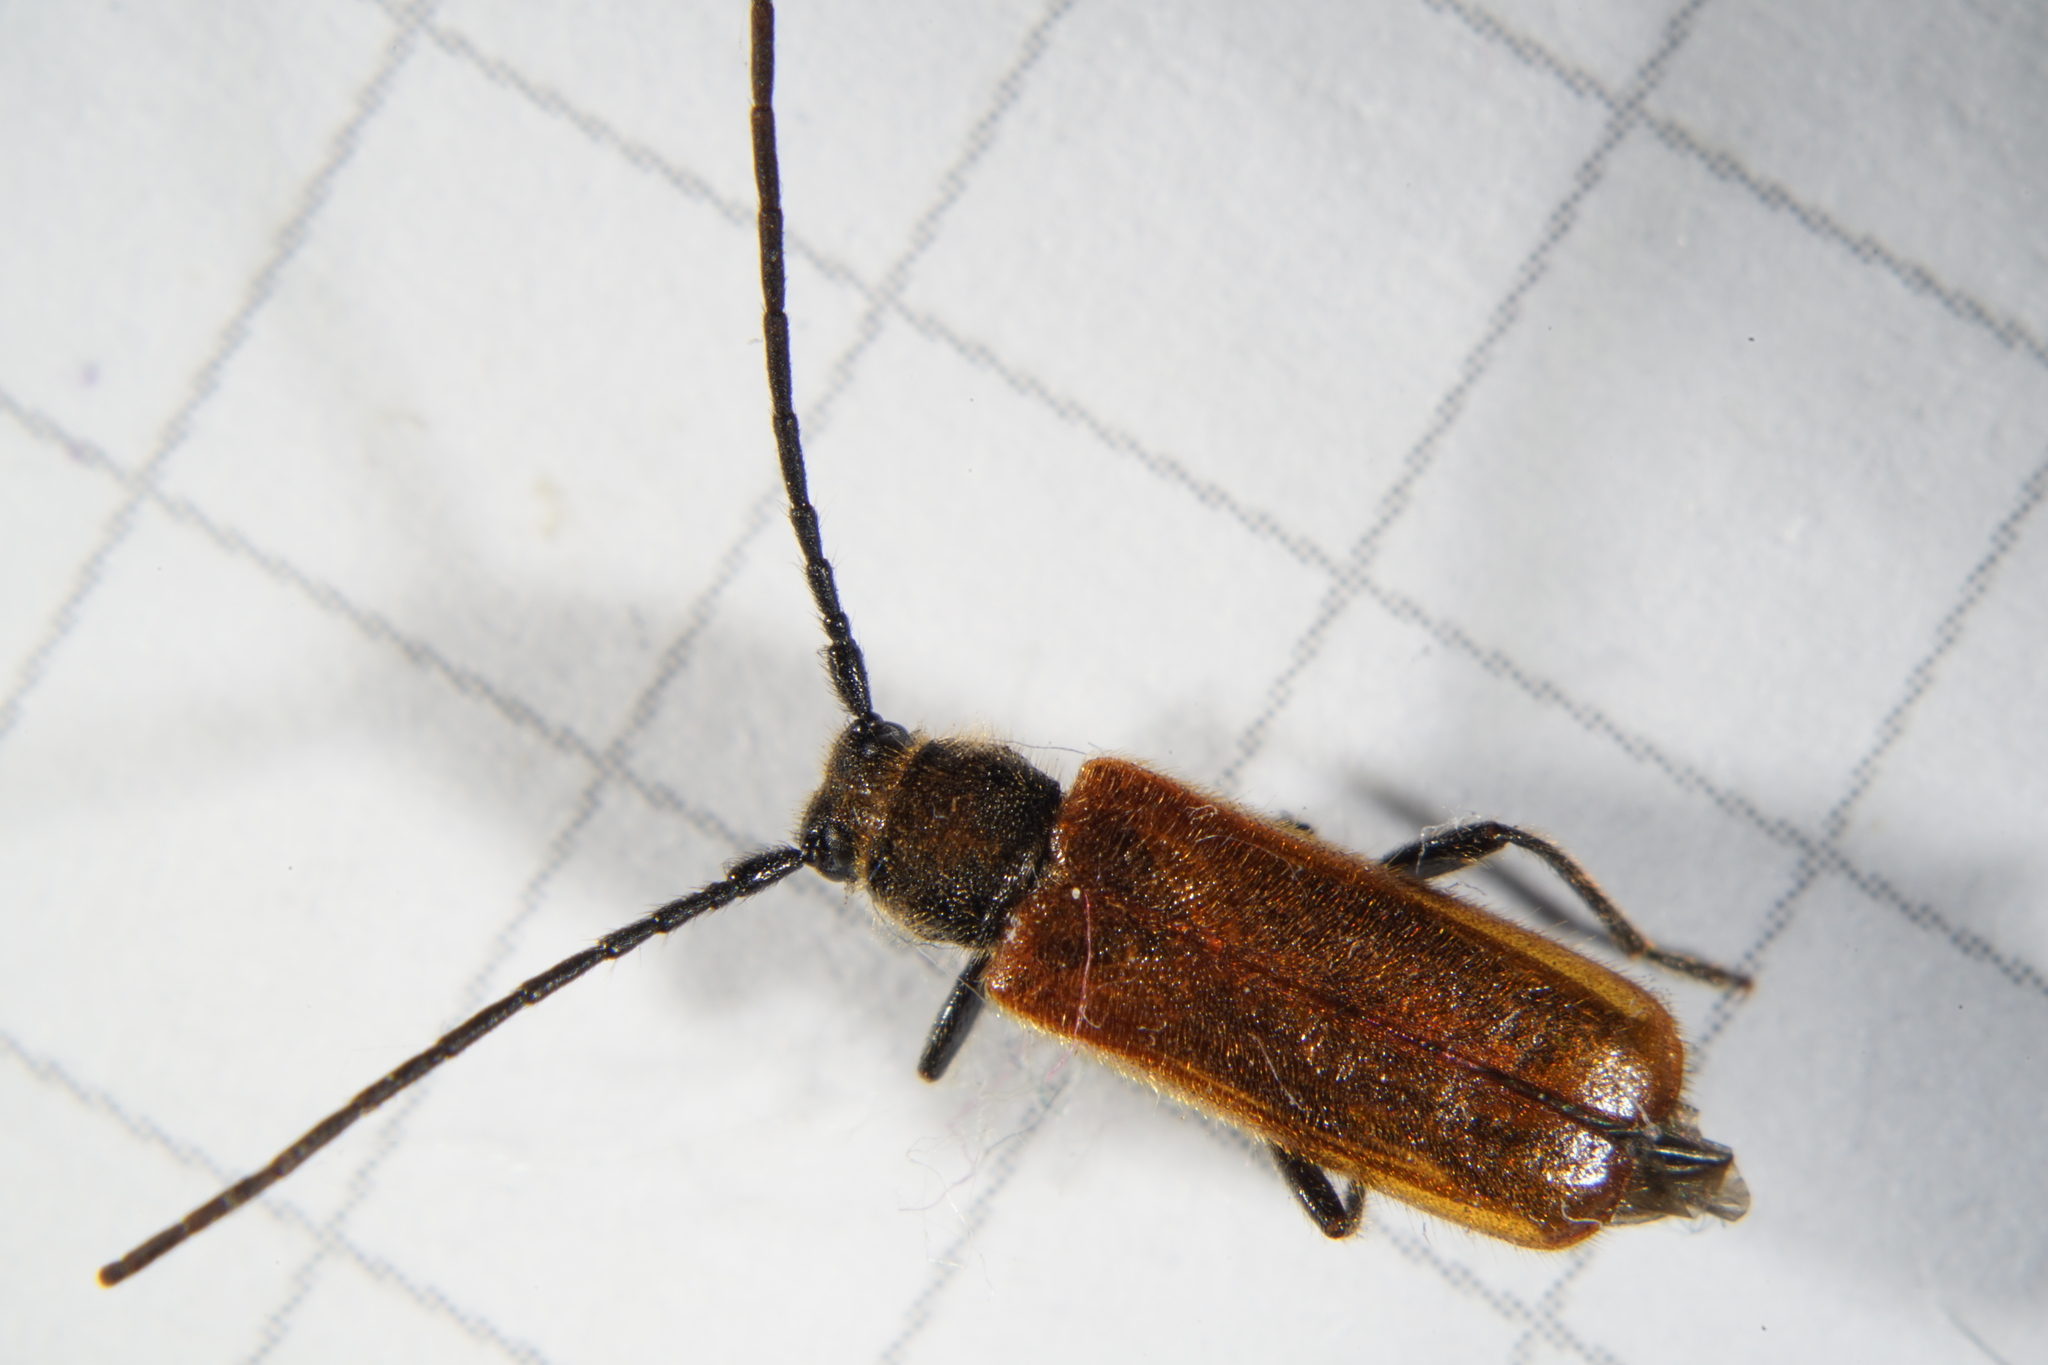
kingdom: Animalia
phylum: Arthropoda
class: Insecta
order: Coleoptera
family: Cerambycidae
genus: Anisarthron
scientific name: Anisarthron barbipes
